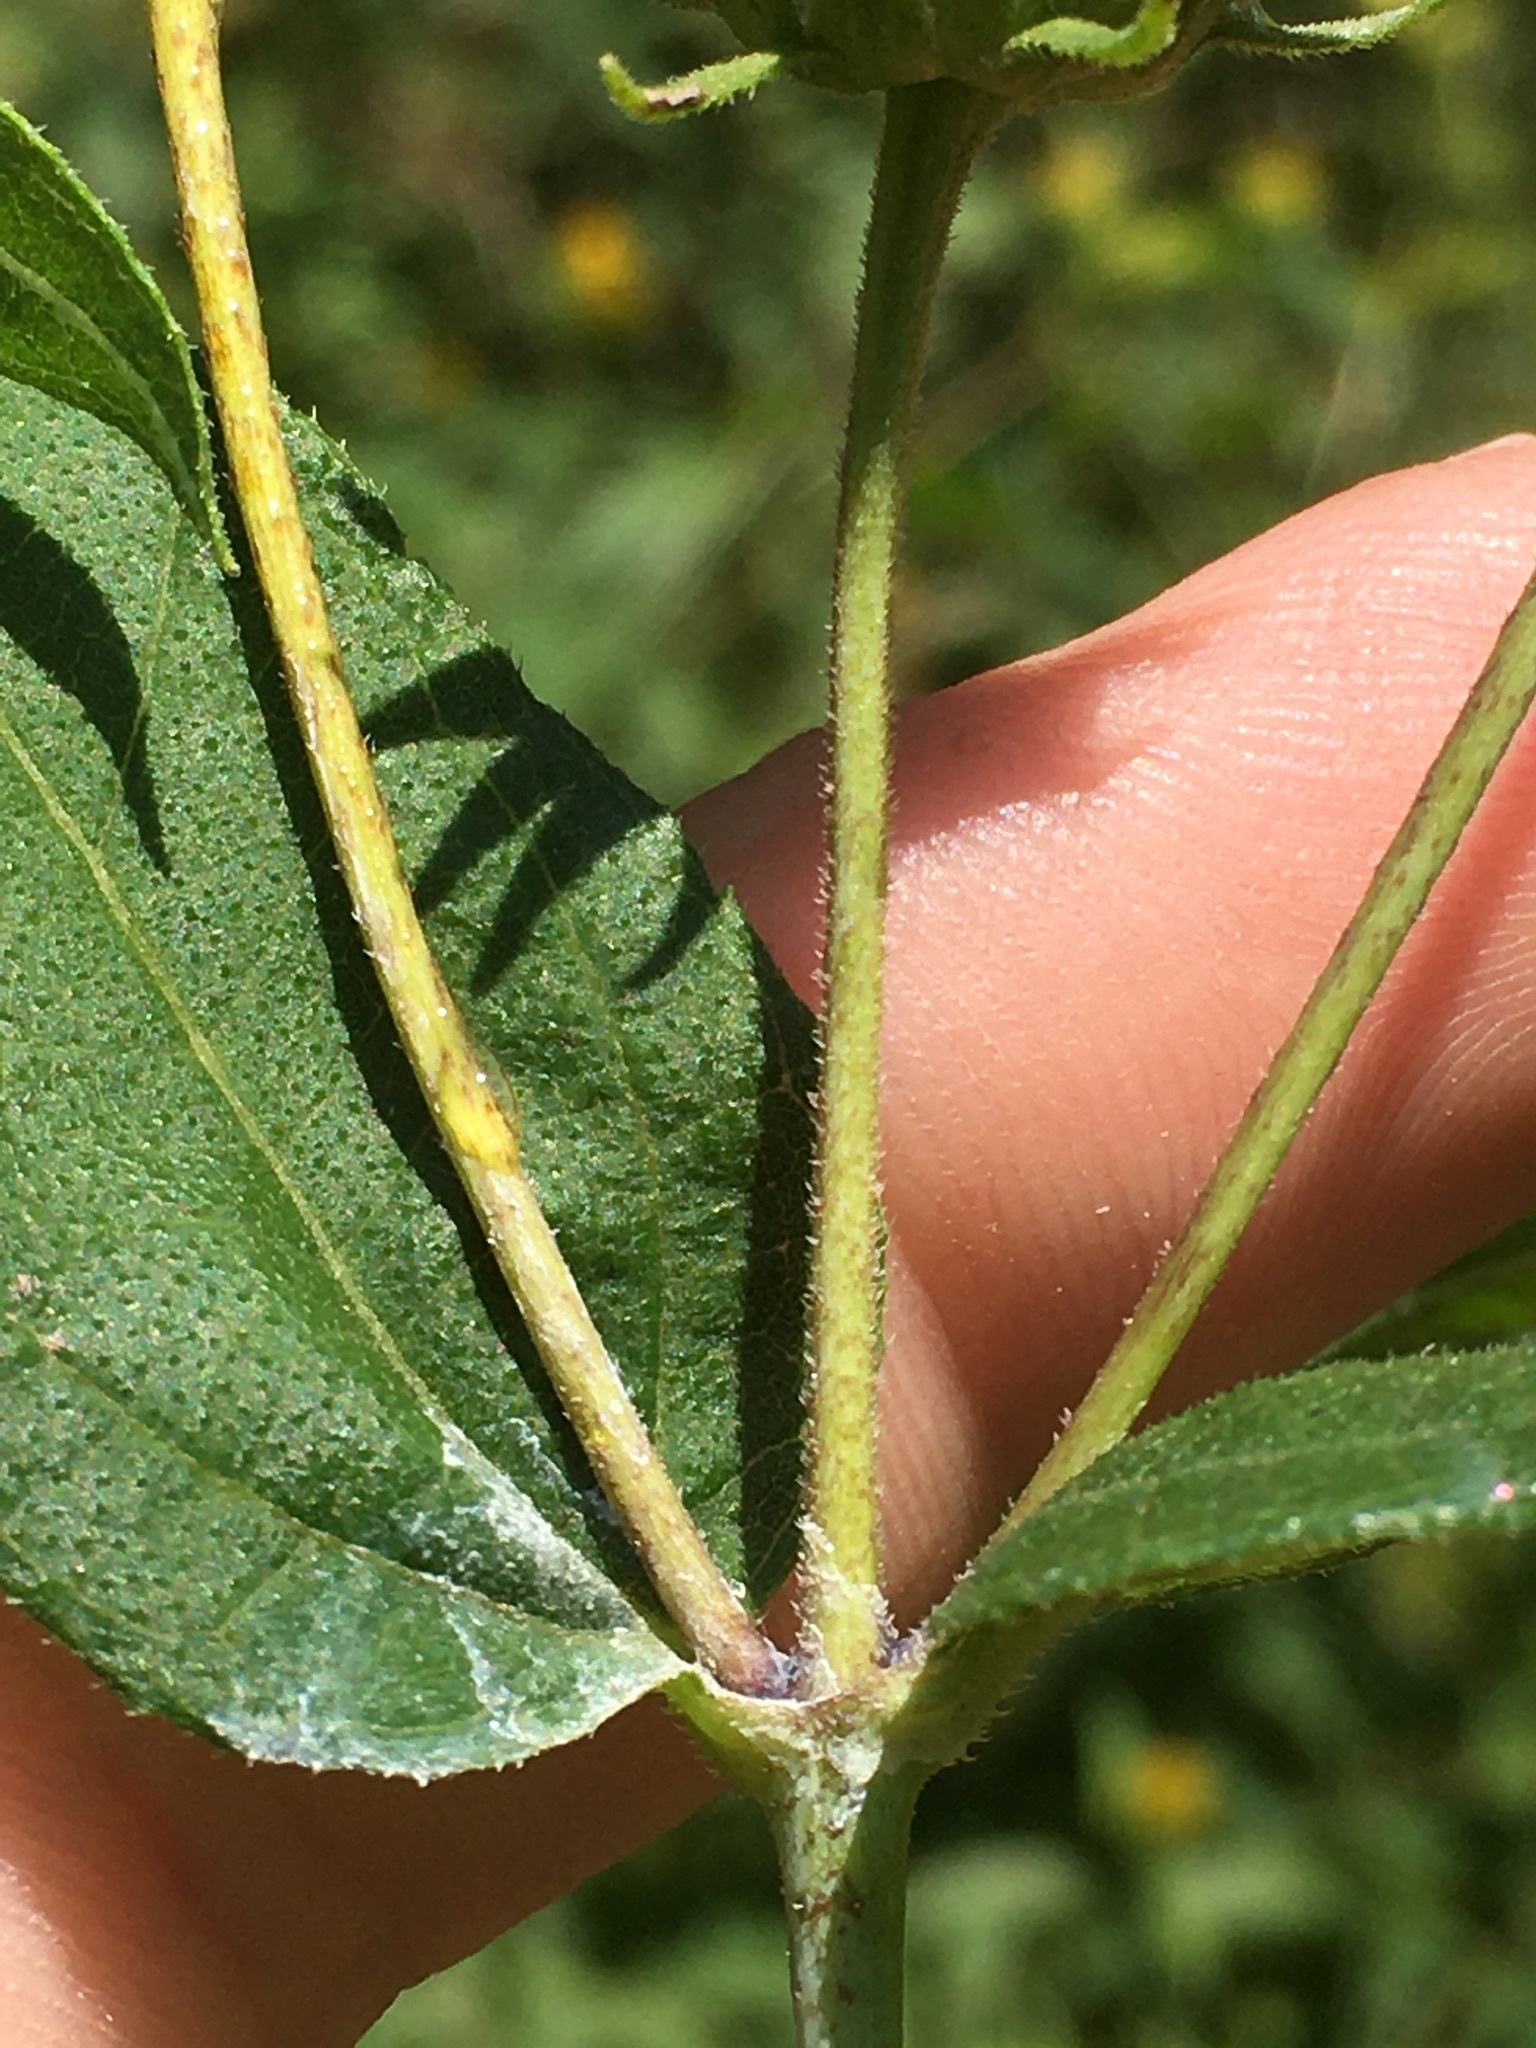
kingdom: Plantae
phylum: Tracheophyta
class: Magnoliopsida
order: Asterales
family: Asteraceae
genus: Helianthus
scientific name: Helianthus divaricatus
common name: Divergent sunflower
